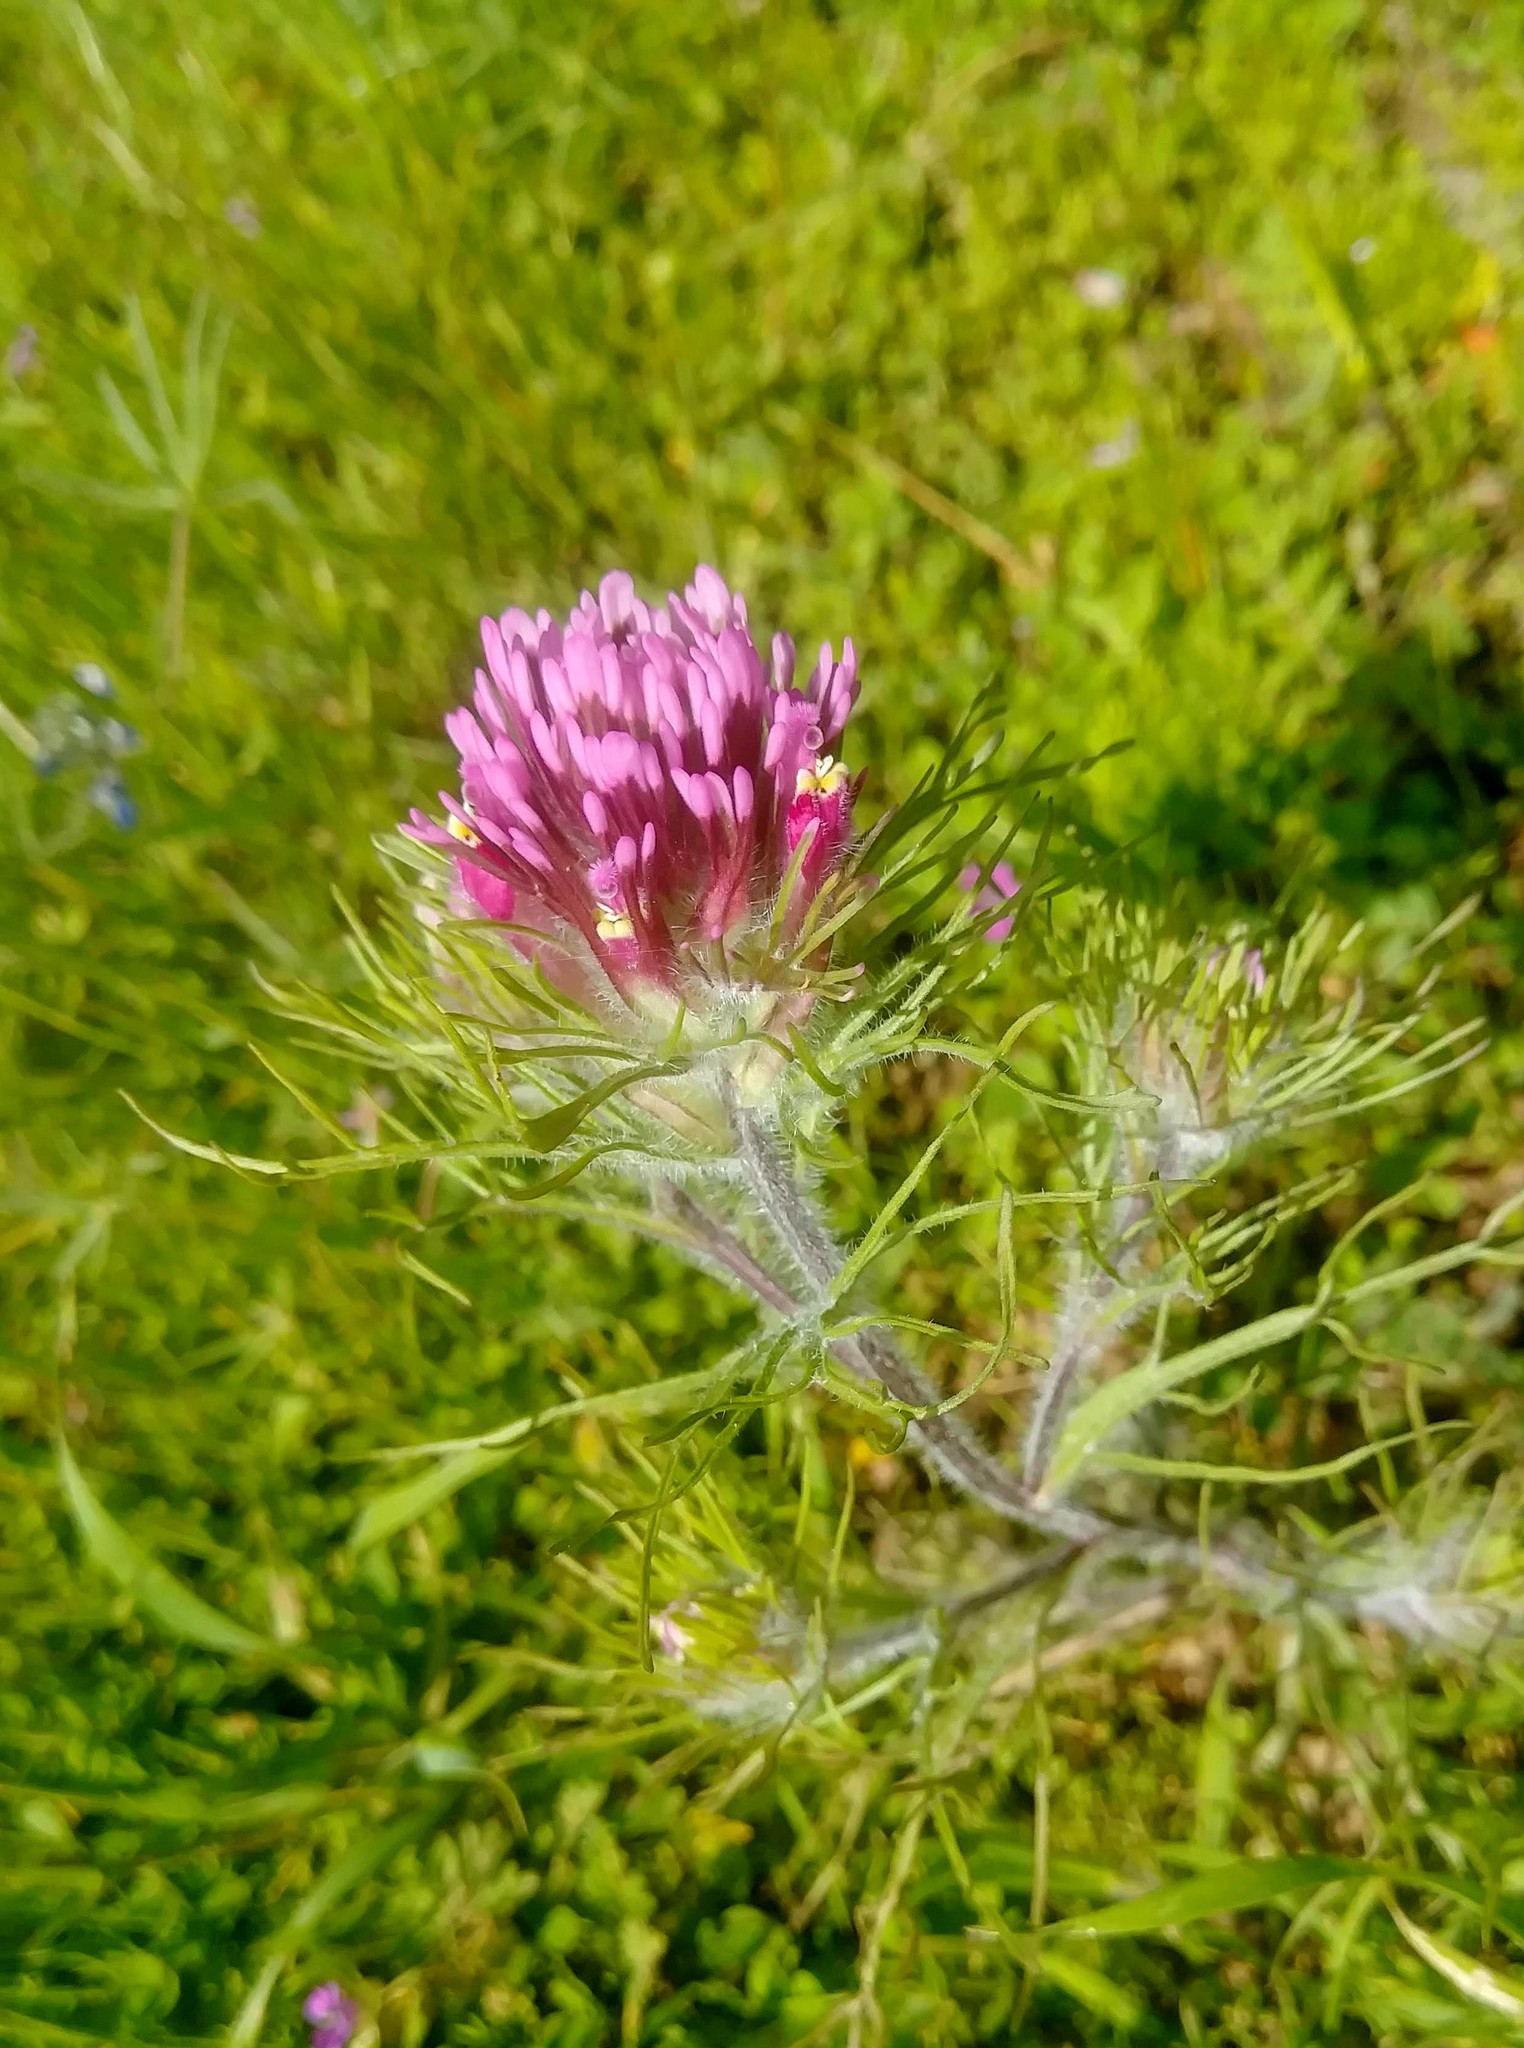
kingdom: Plantae
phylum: Tracheophyta
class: Magnoliopsida
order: Lamiales
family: Orobanchaceae
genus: Castilleja
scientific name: Castilleja exserta
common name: Purple owl-clover
